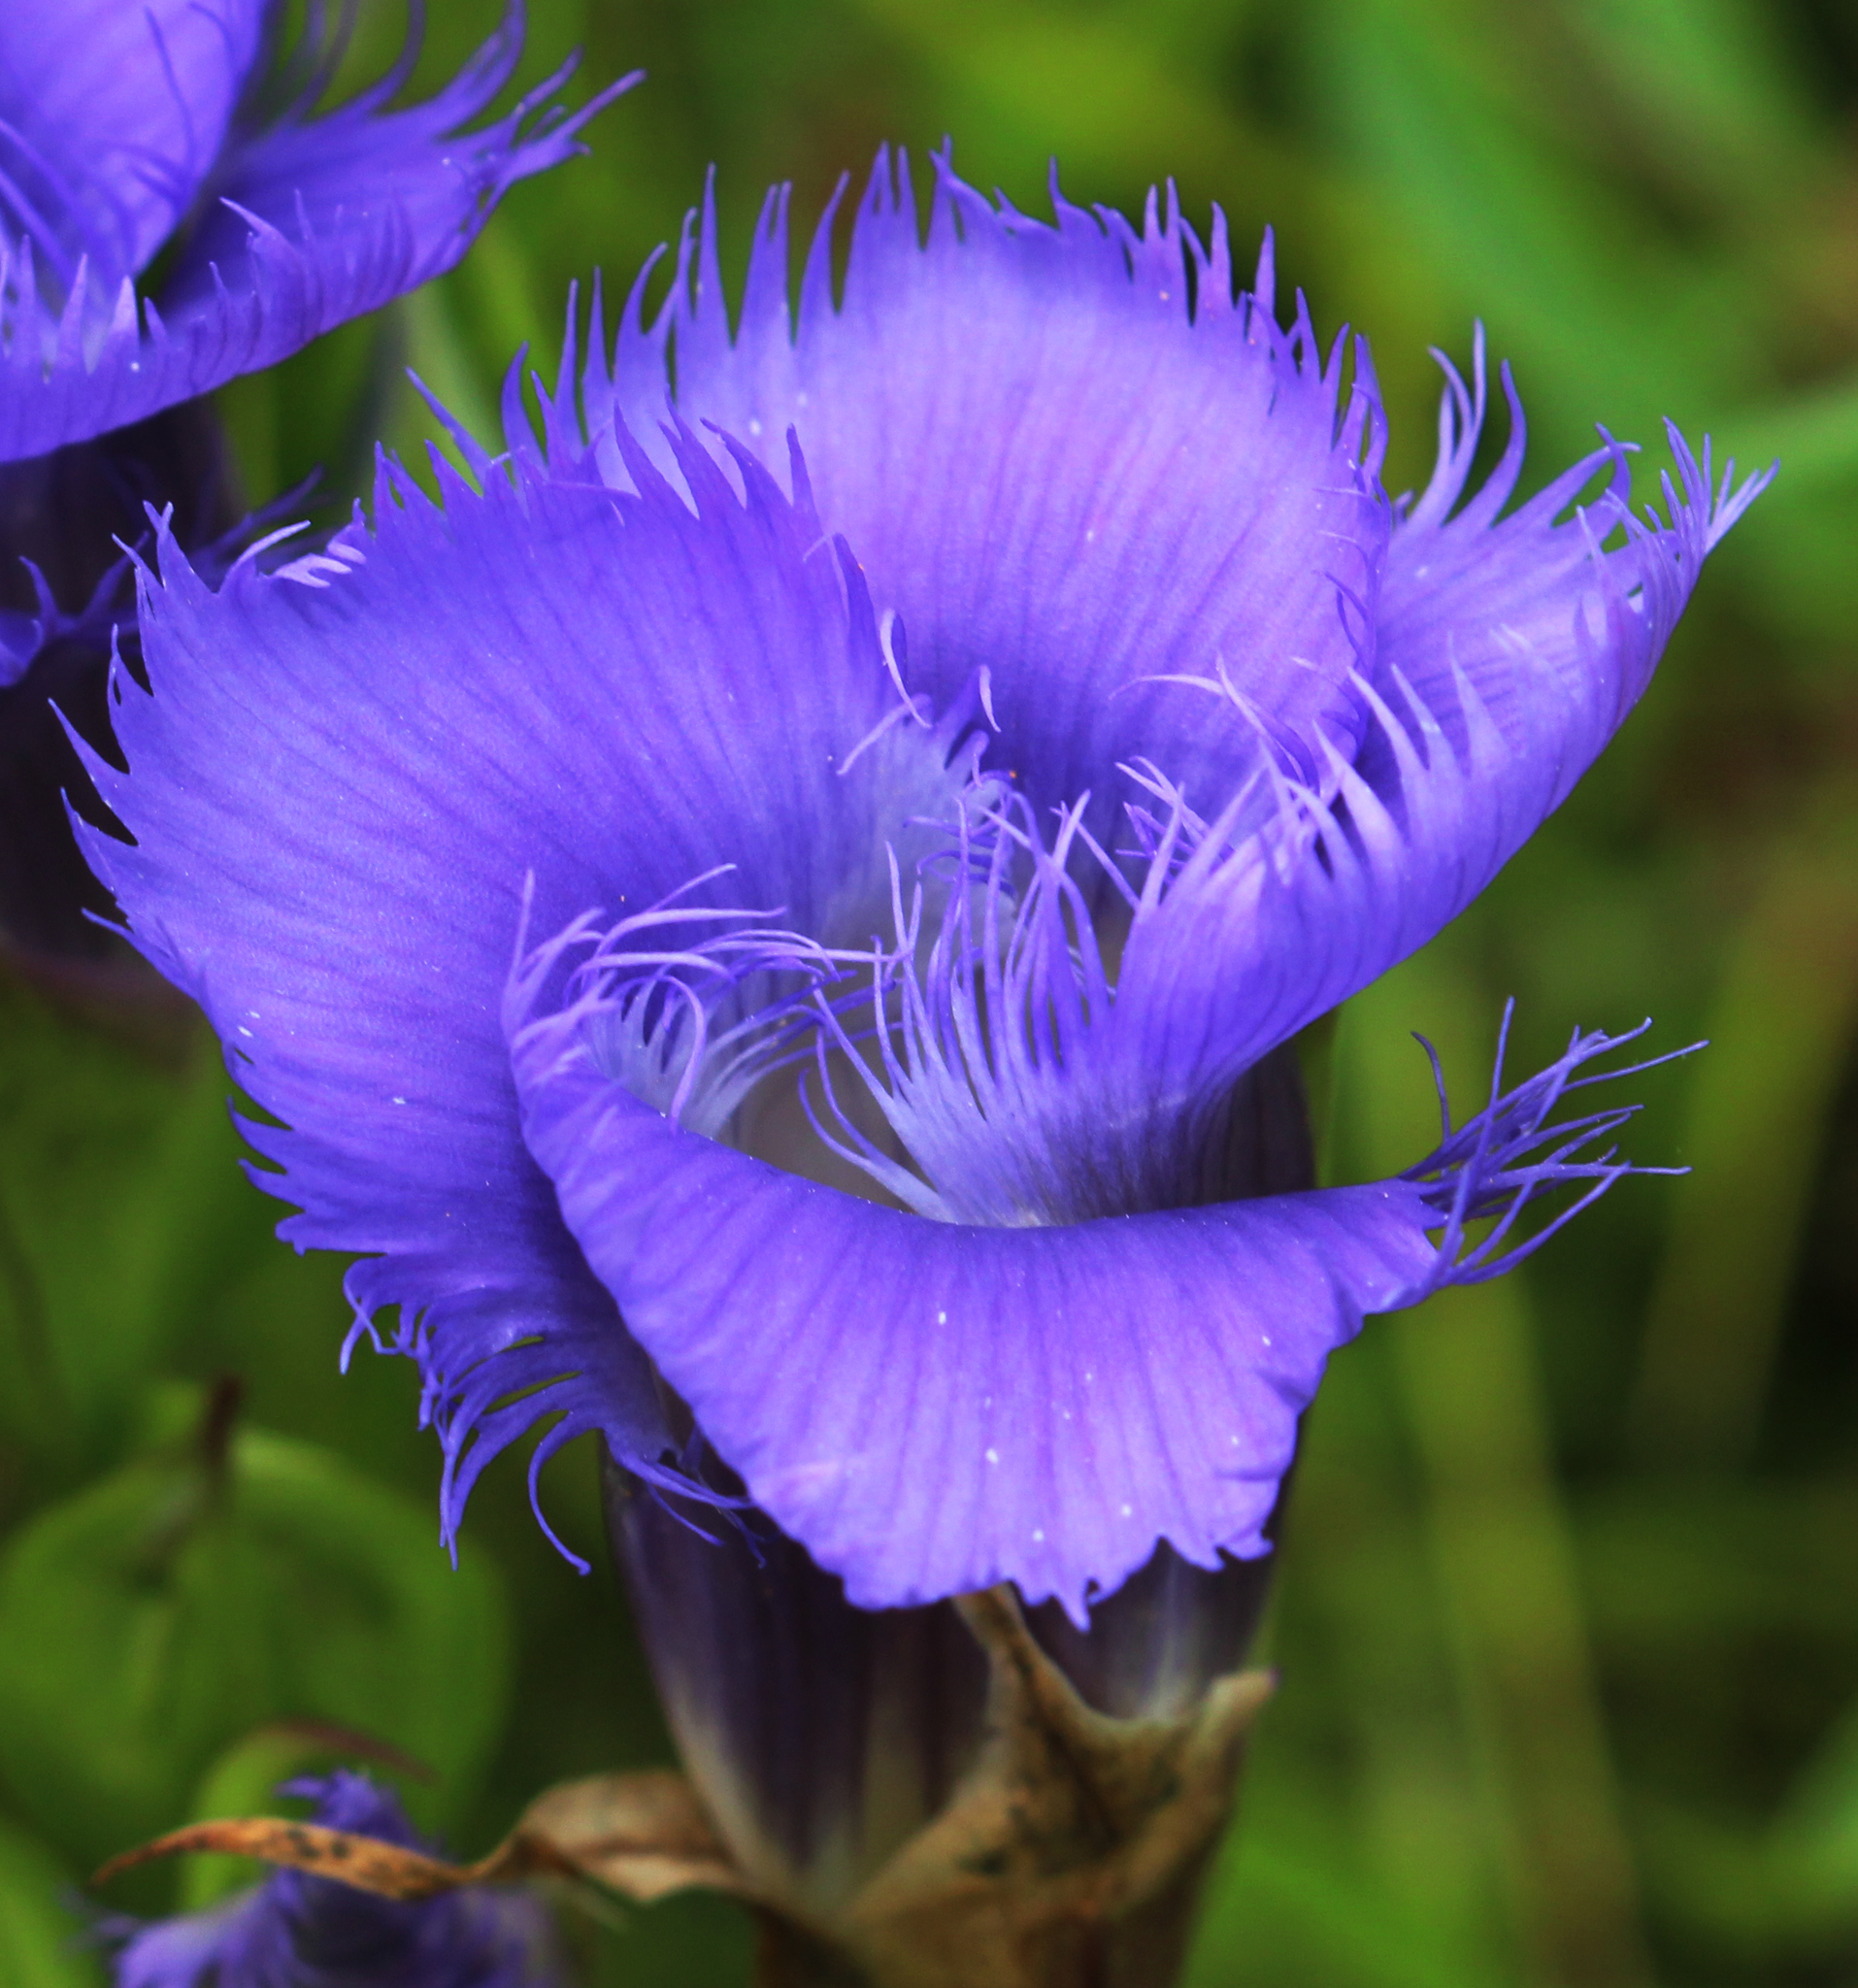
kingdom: Plantae
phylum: Tracheophyta
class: Magnoliopsida
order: Gentianales
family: Gentianaceae
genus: Gentianopsis
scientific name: Gentianopsis crinita
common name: Fringed-gentian
